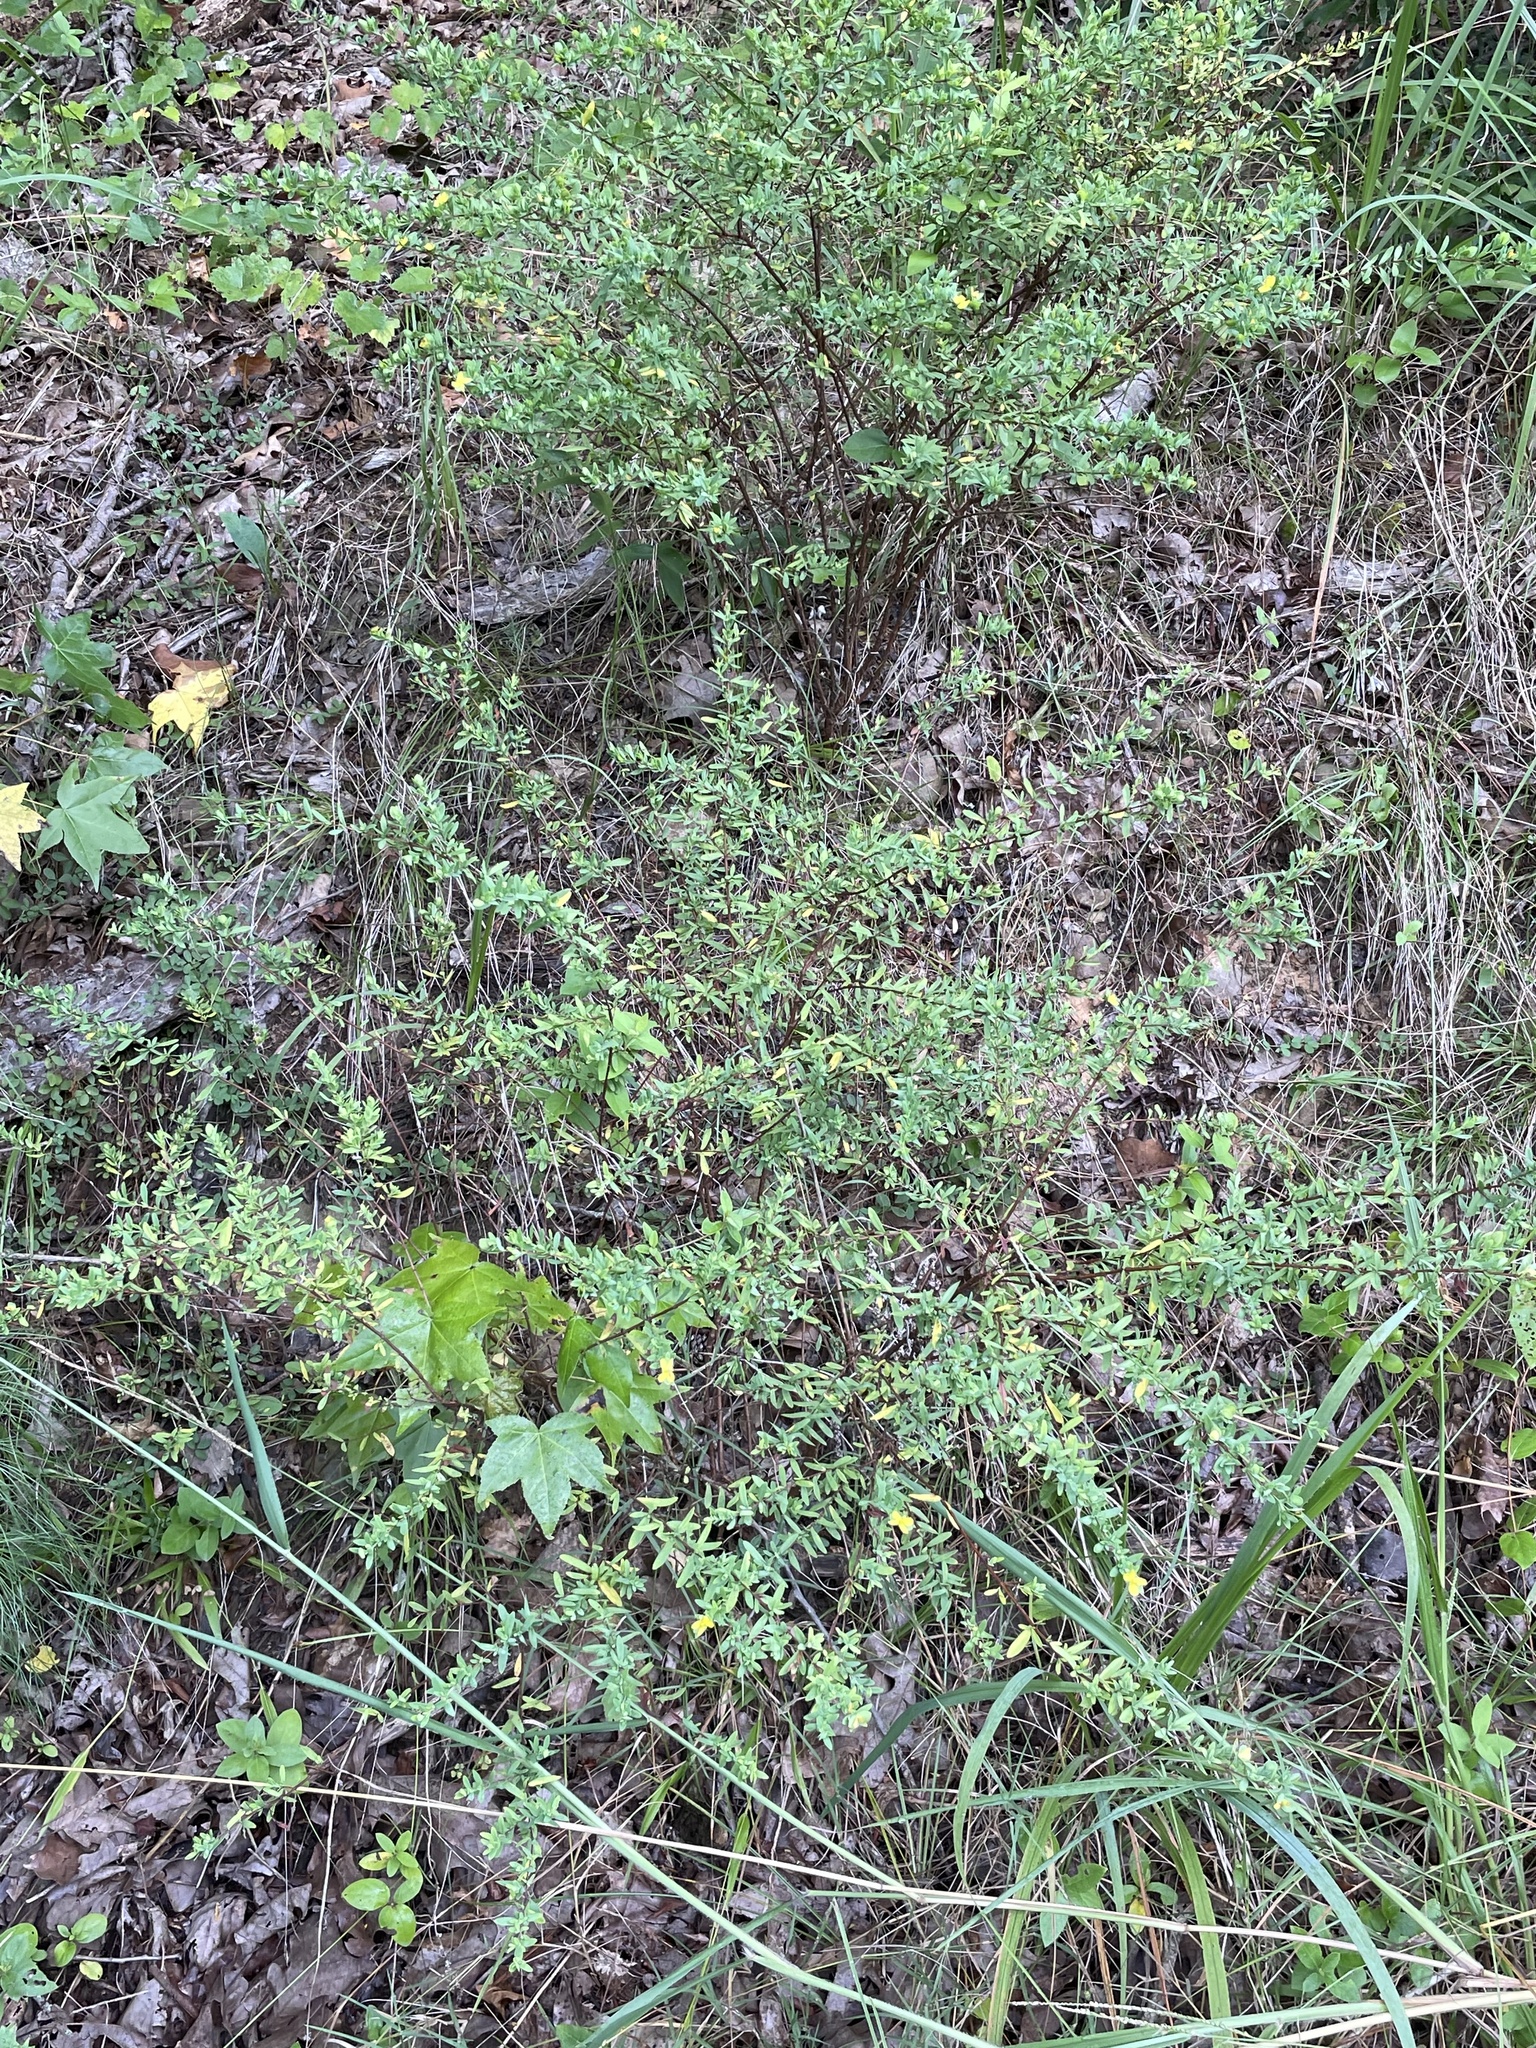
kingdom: Plantae
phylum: Tracheophyta
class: Magnoliopsida
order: Malpighiales
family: Hypericaceae
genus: Hypericum
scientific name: Hypericum hypericoides
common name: St. andrew's cross
